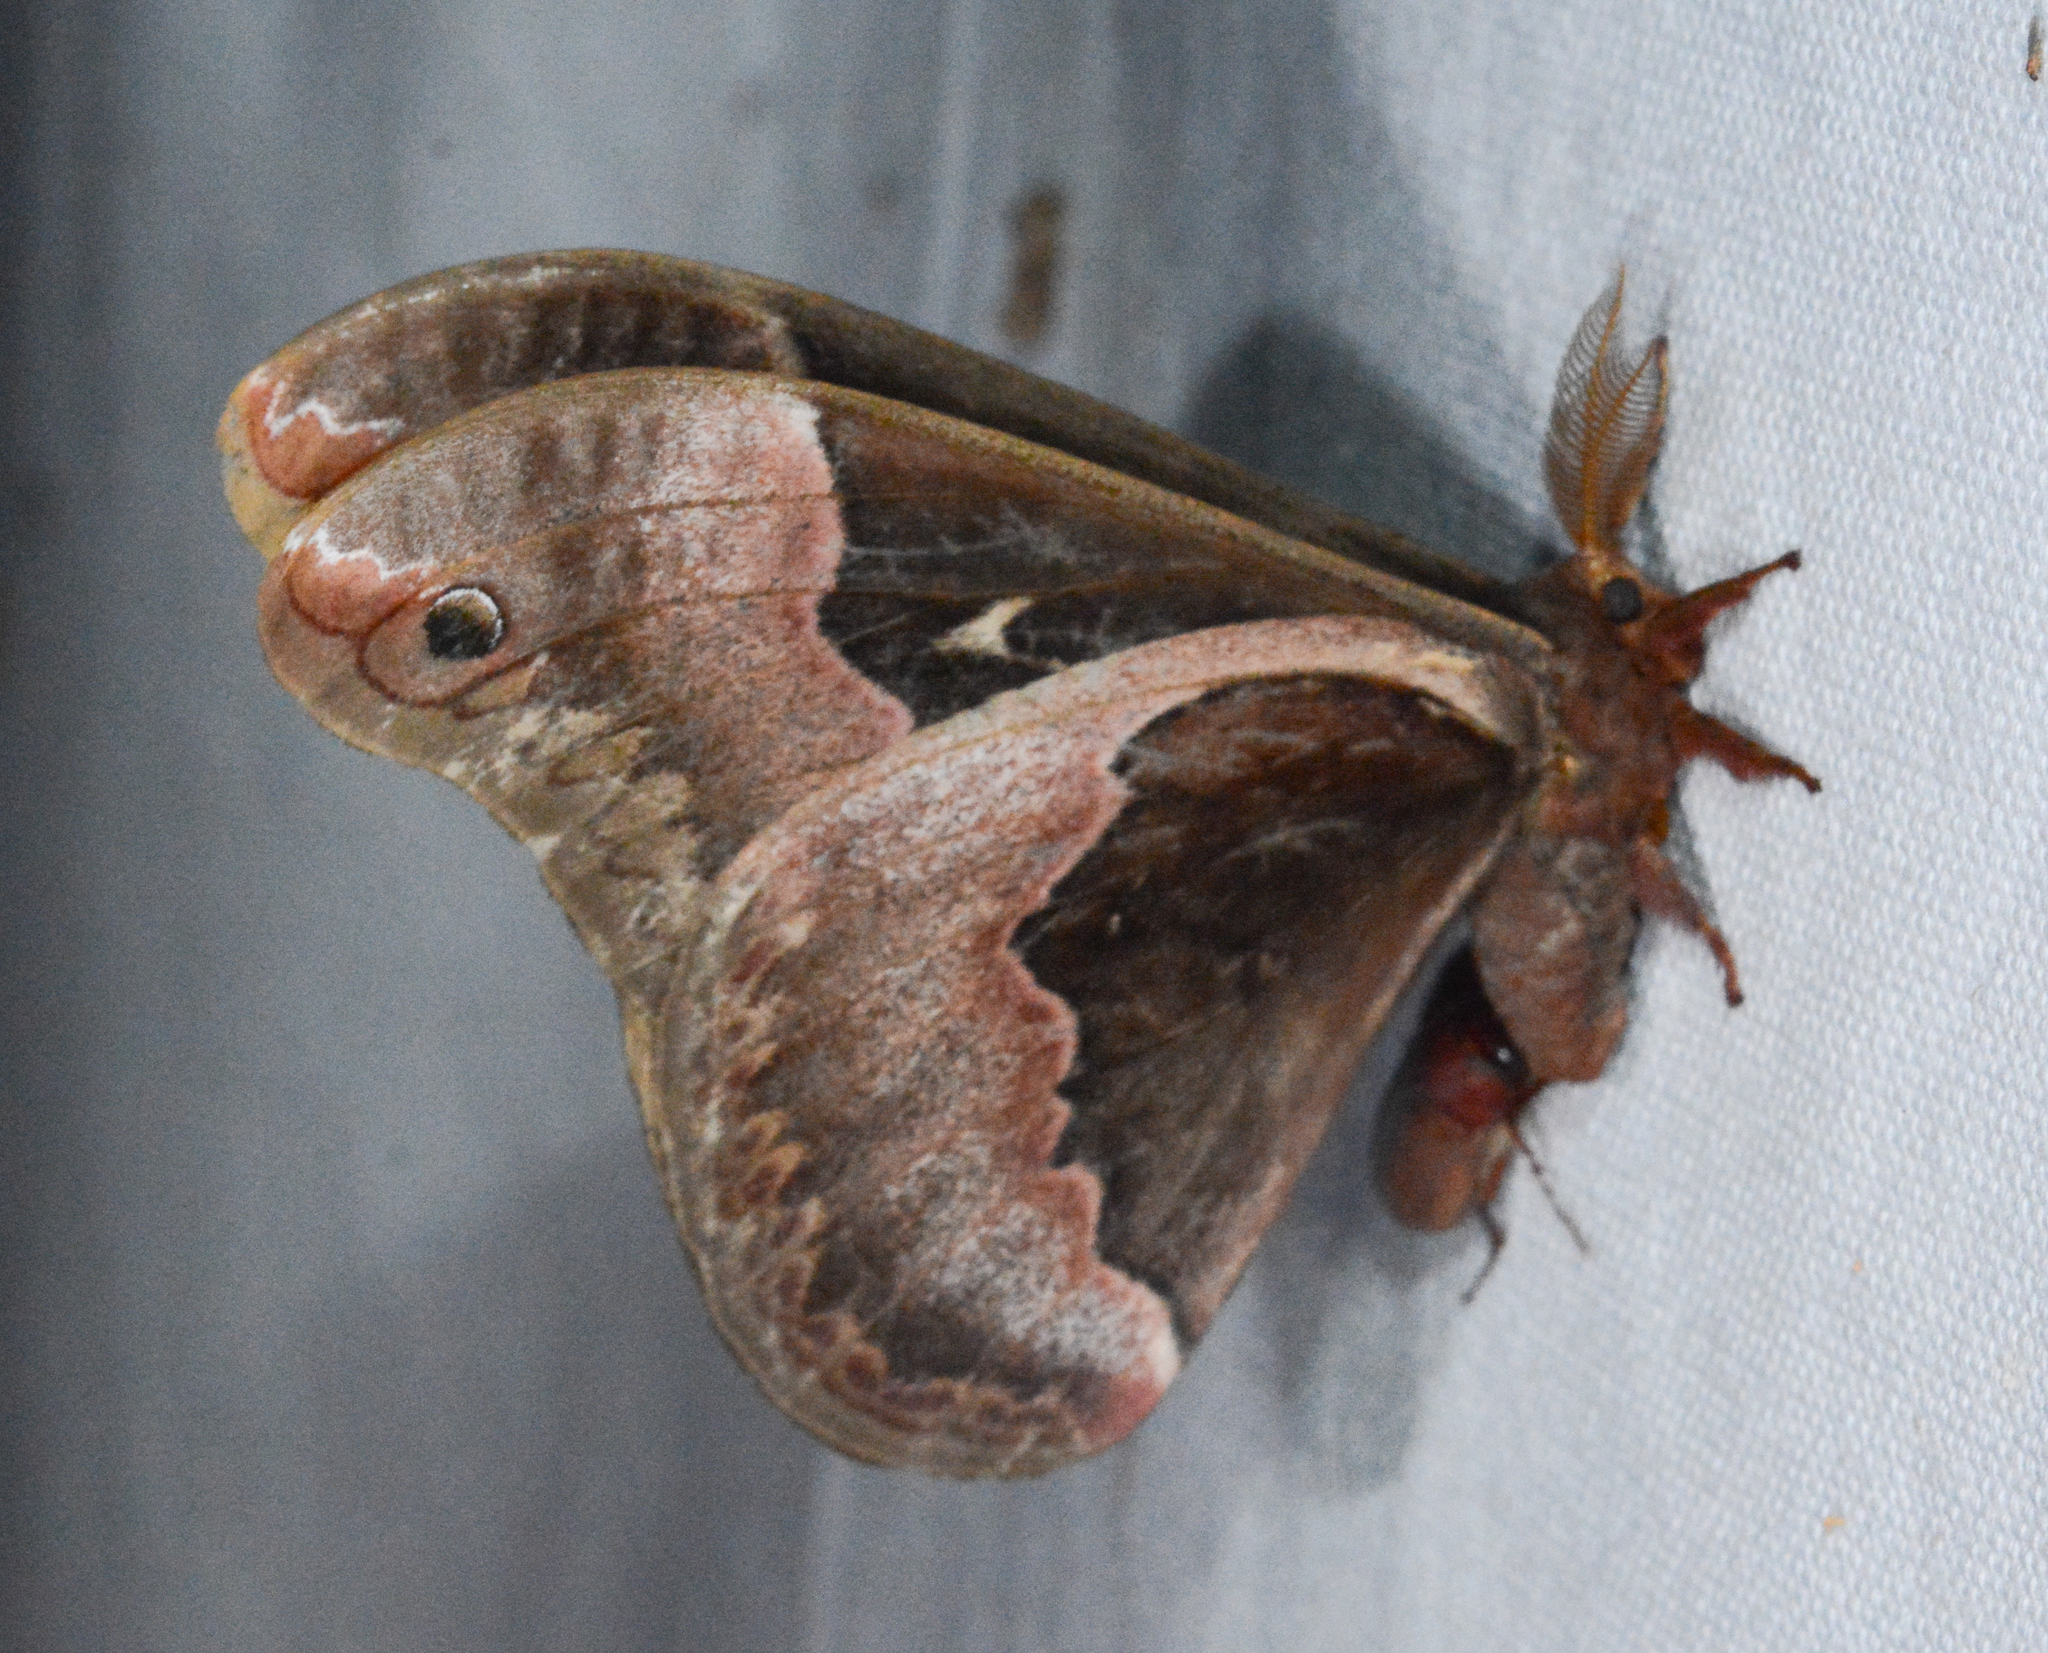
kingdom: Animalia
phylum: Arthropoda
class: Insecta
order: Lepidoptera
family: Saturniidae
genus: Callosamia
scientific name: Callosamia angulifera
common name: Tulip tree silkmoth
